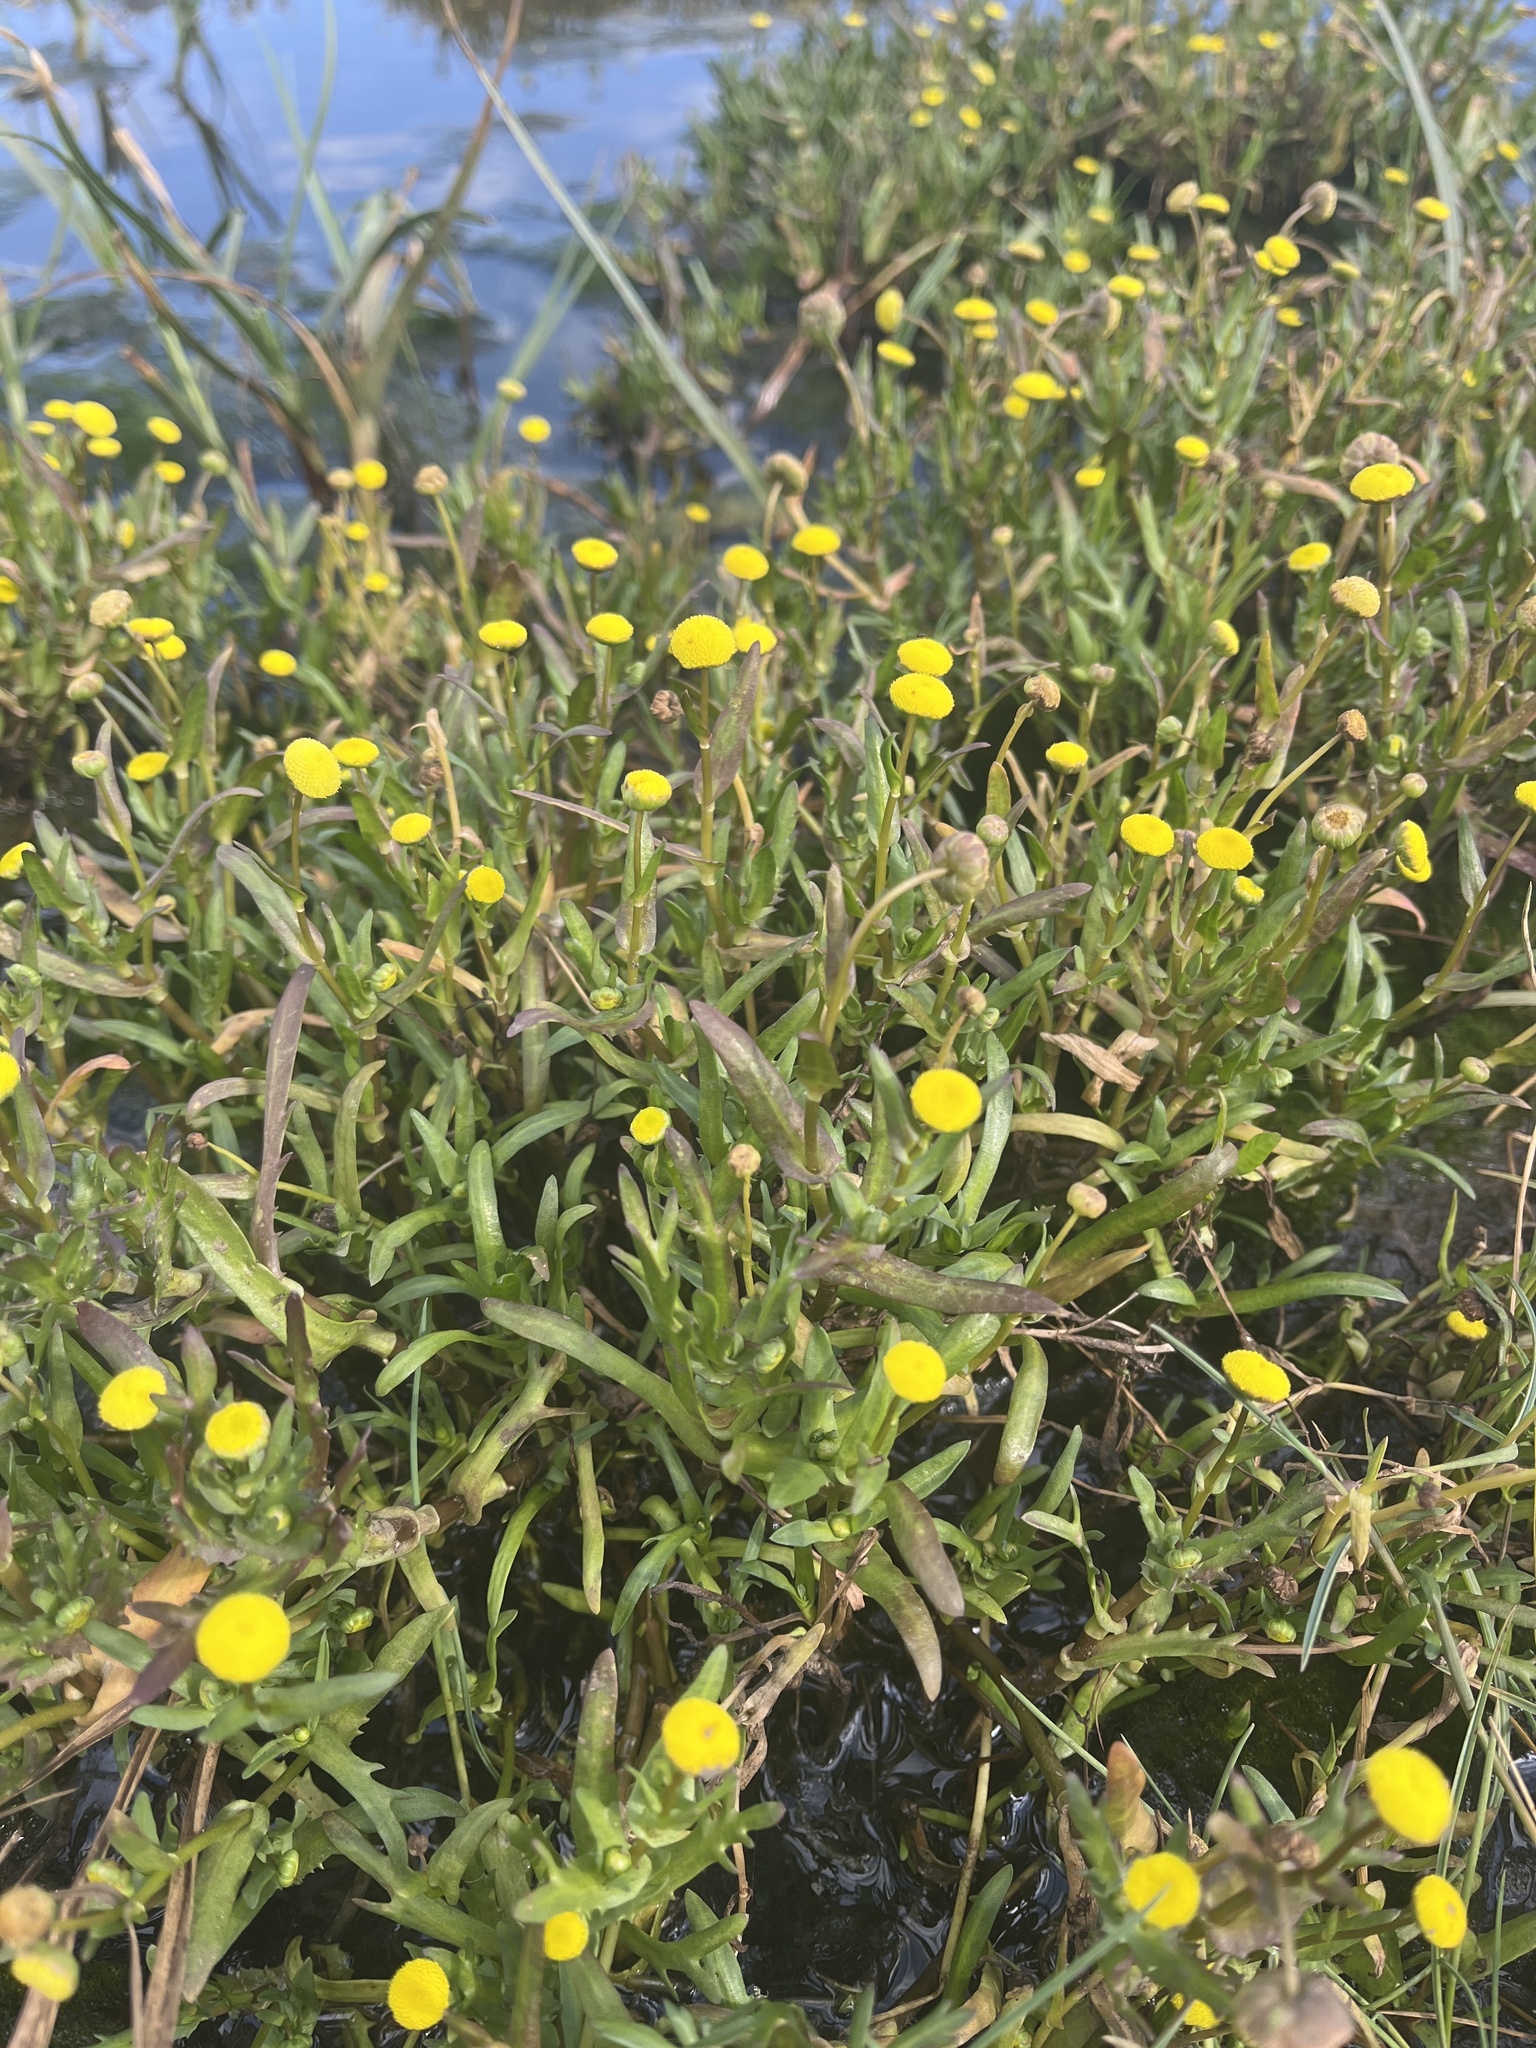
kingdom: Plantae
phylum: Tracheophyta
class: Magnoliopsida
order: Asterales
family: Asteraceae
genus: Cotula
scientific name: Cotula coronopifolia
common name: Buttonweed
